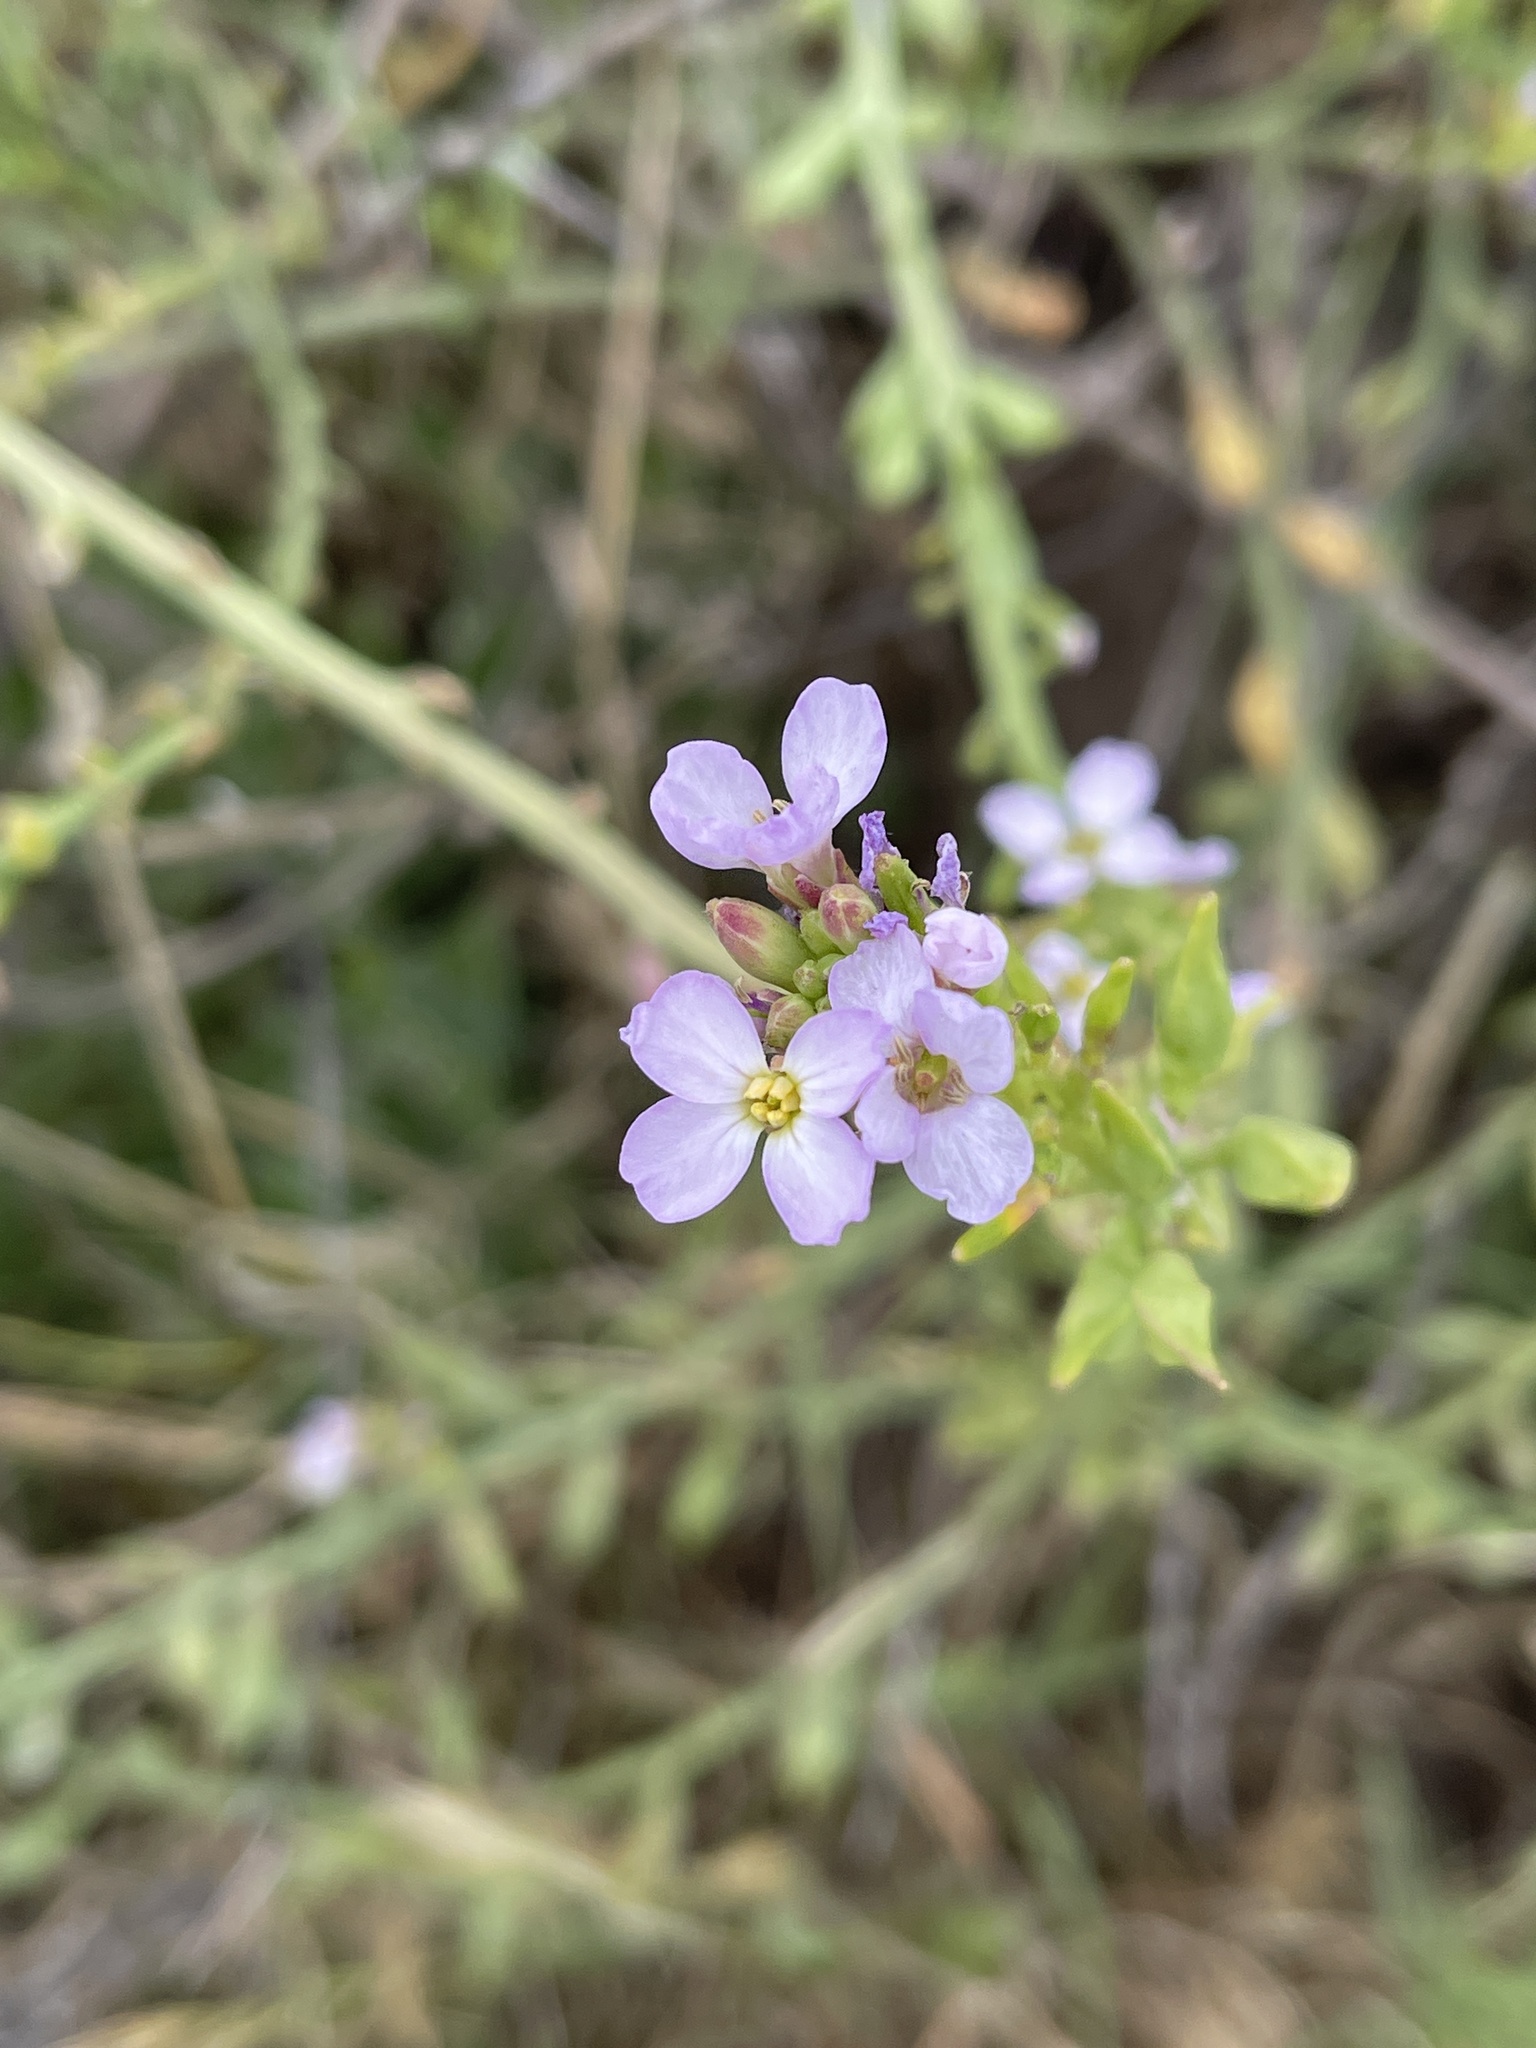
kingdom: Plantae
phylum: Tracheophyta
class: Magnoliopsida
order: Brassicales
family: Brassicaceae
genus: Cakile
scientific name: Cakile maritima
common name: Sea rocket
